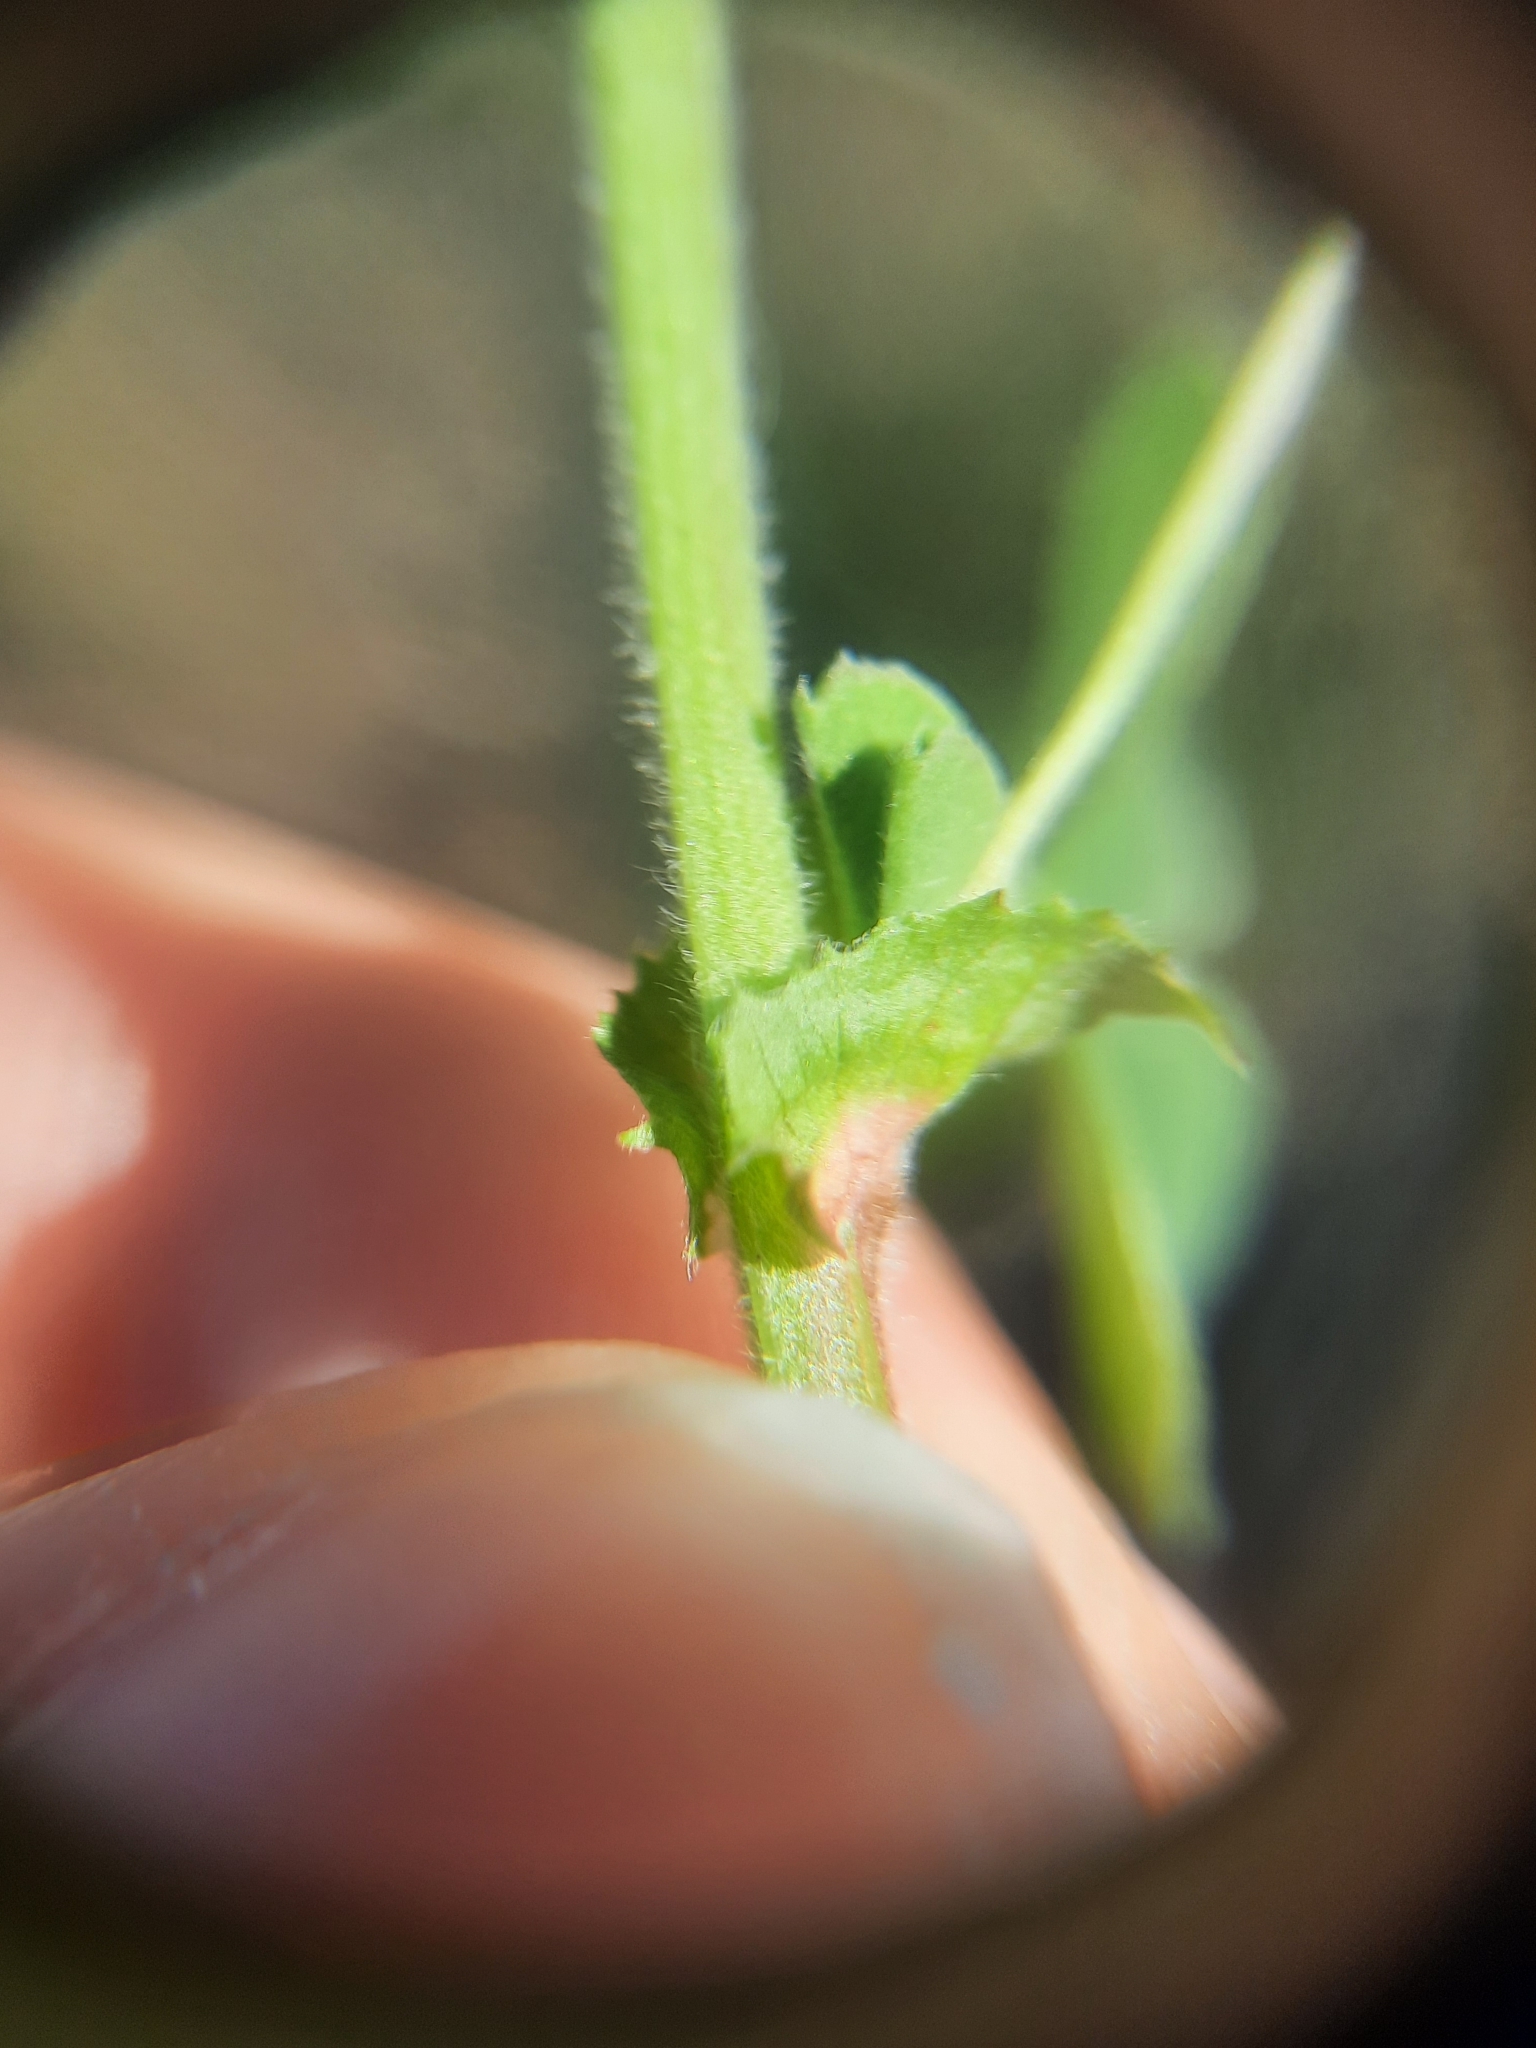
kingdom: Plantae
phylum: Tracheophyta
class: Magnoliopsida
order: Fabales
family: Fabaceae
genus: Medicago
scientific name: Medicago lupulina
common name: Black medick
